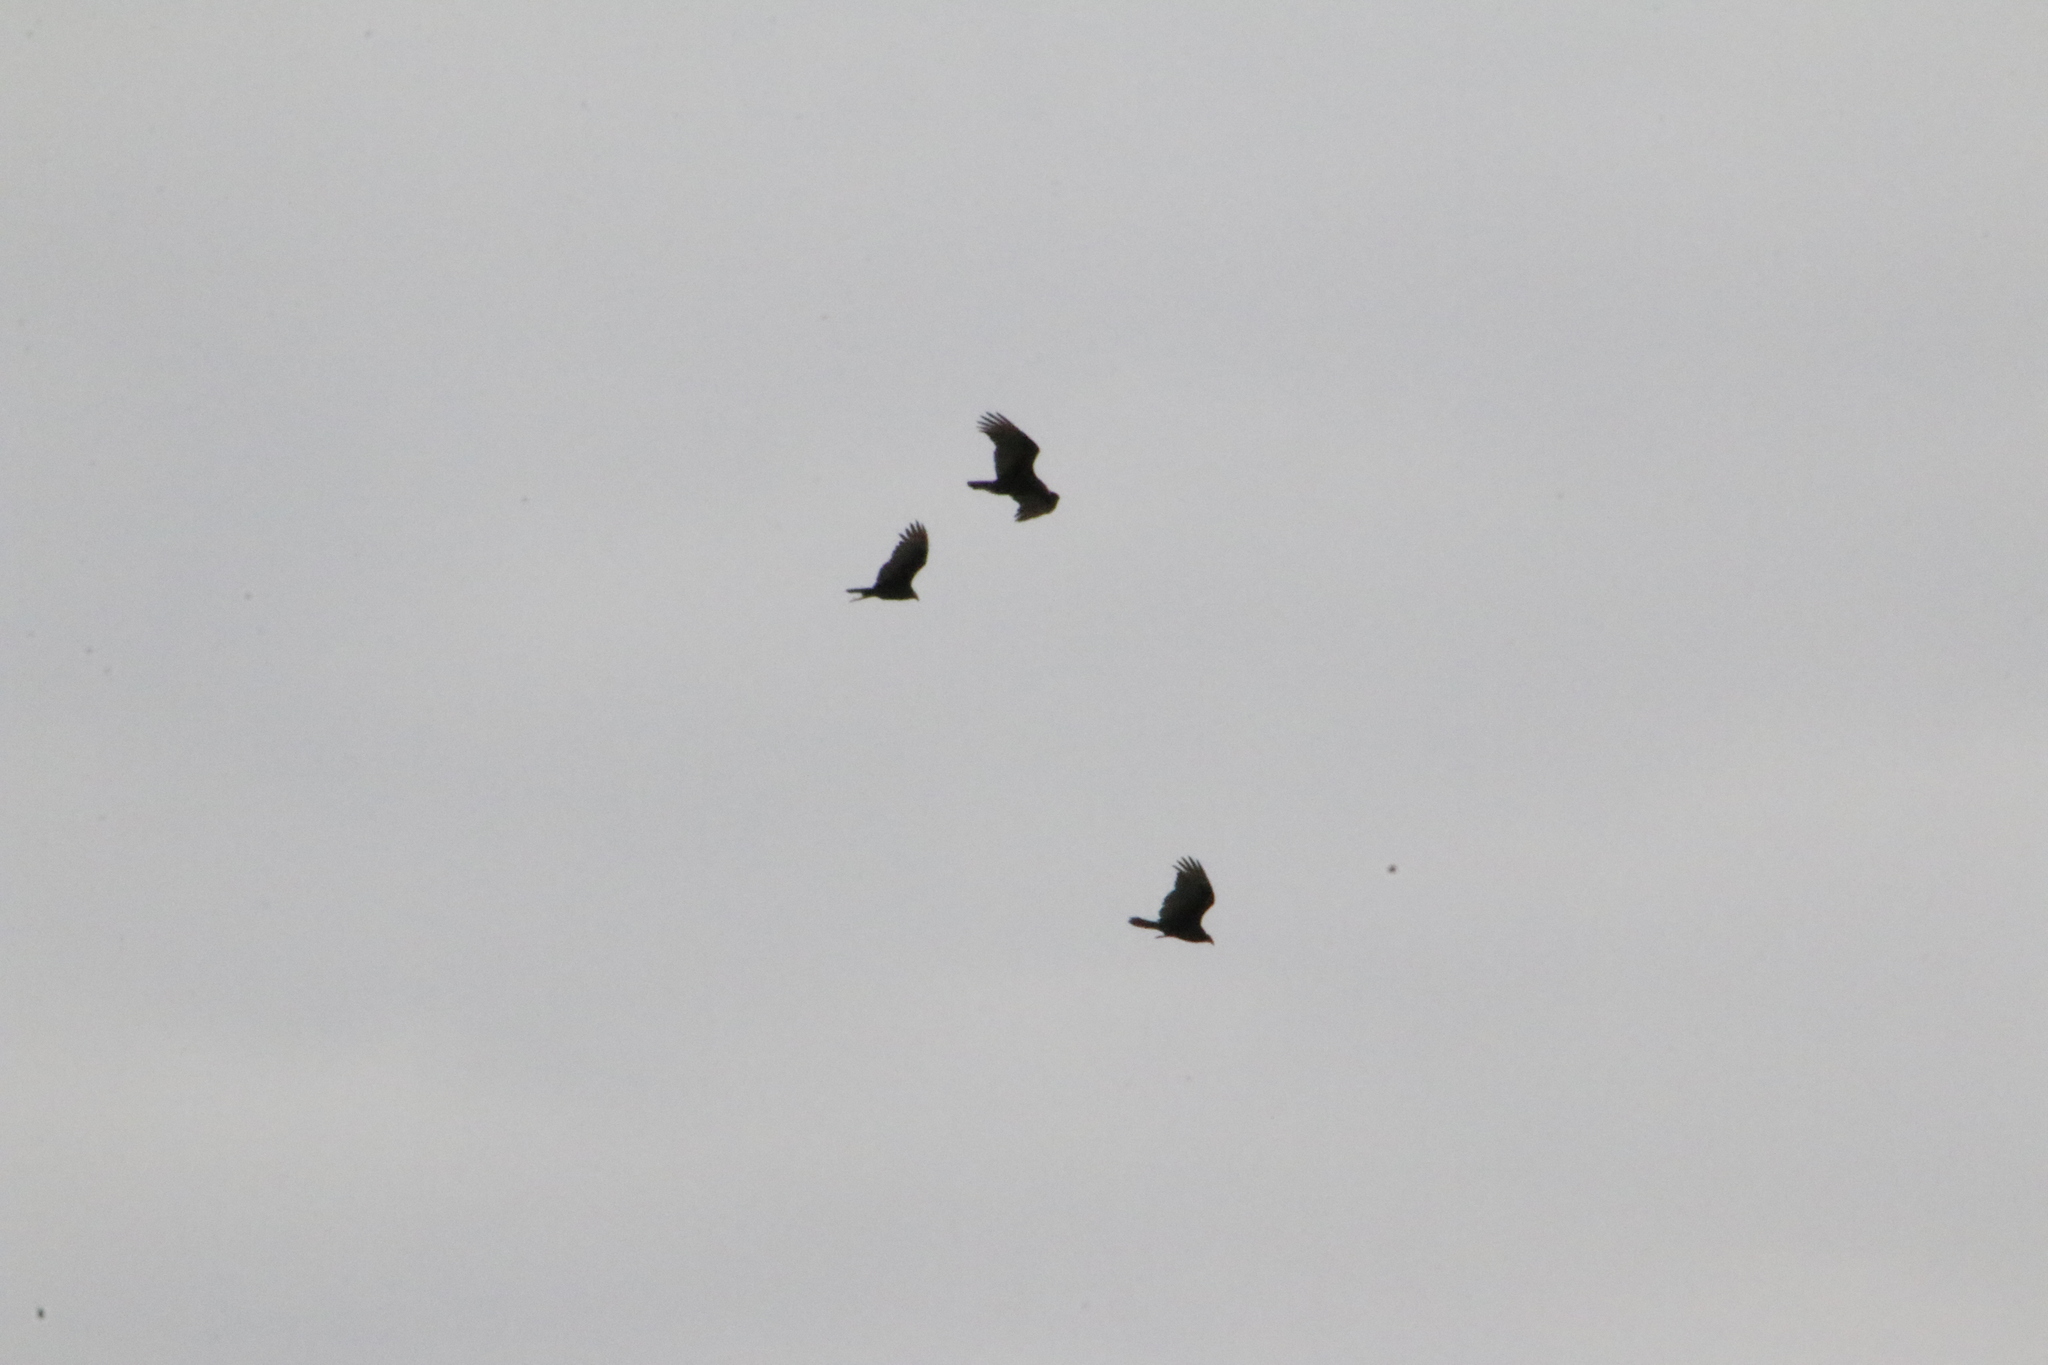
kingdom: Animalia
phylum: Chordata
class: Aves
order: Accipitriformes
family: Cathartidae
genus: Cathartes
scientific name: Cathartes aura
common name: Turkey vulture
